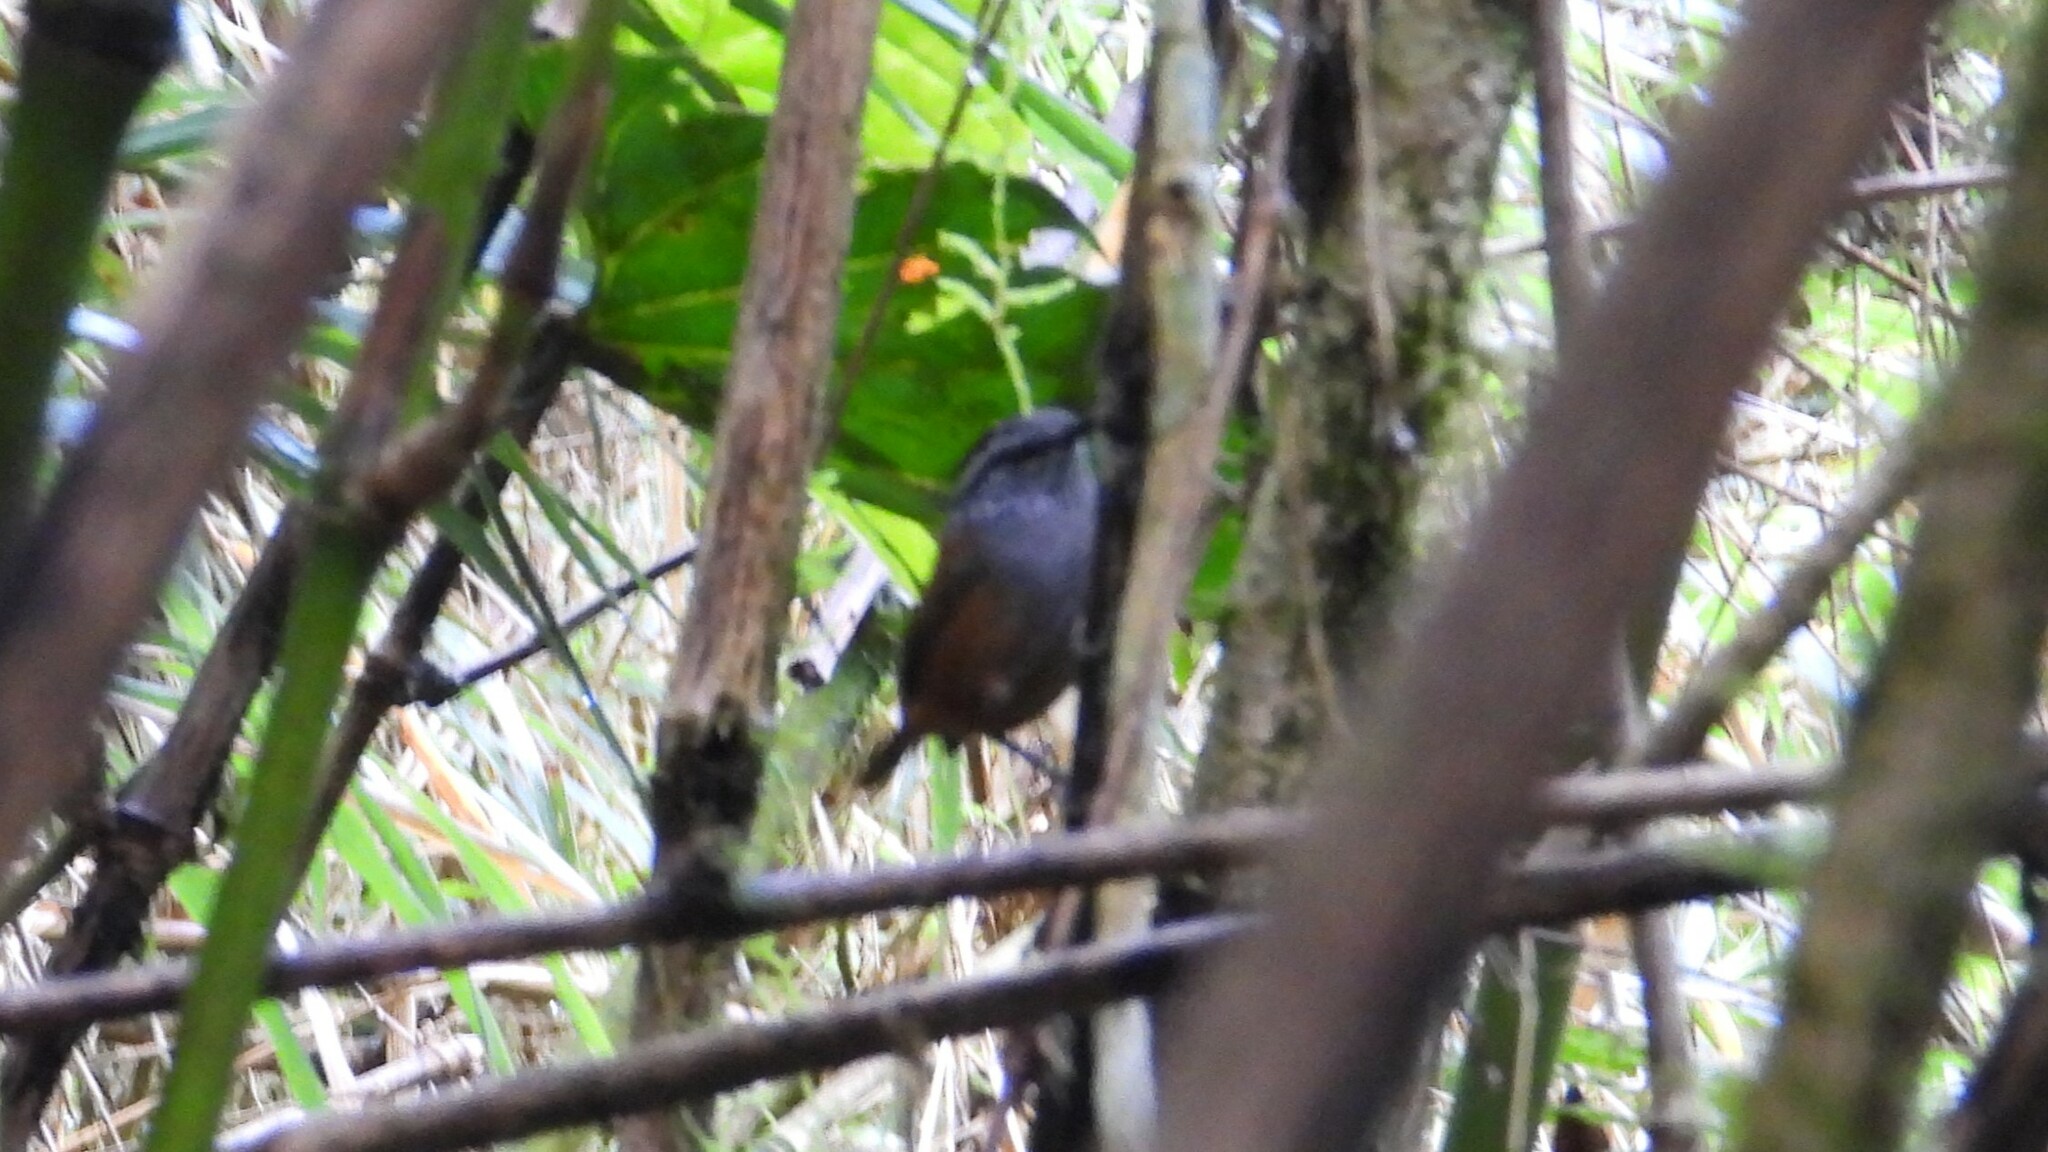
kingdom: Animalia
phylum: Chordata
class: Aves
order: Passeriformes
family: Troglodytidae
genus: Henicorhina
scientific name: Henicorhina leucophrys
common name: Gray-breasted wood-wren
